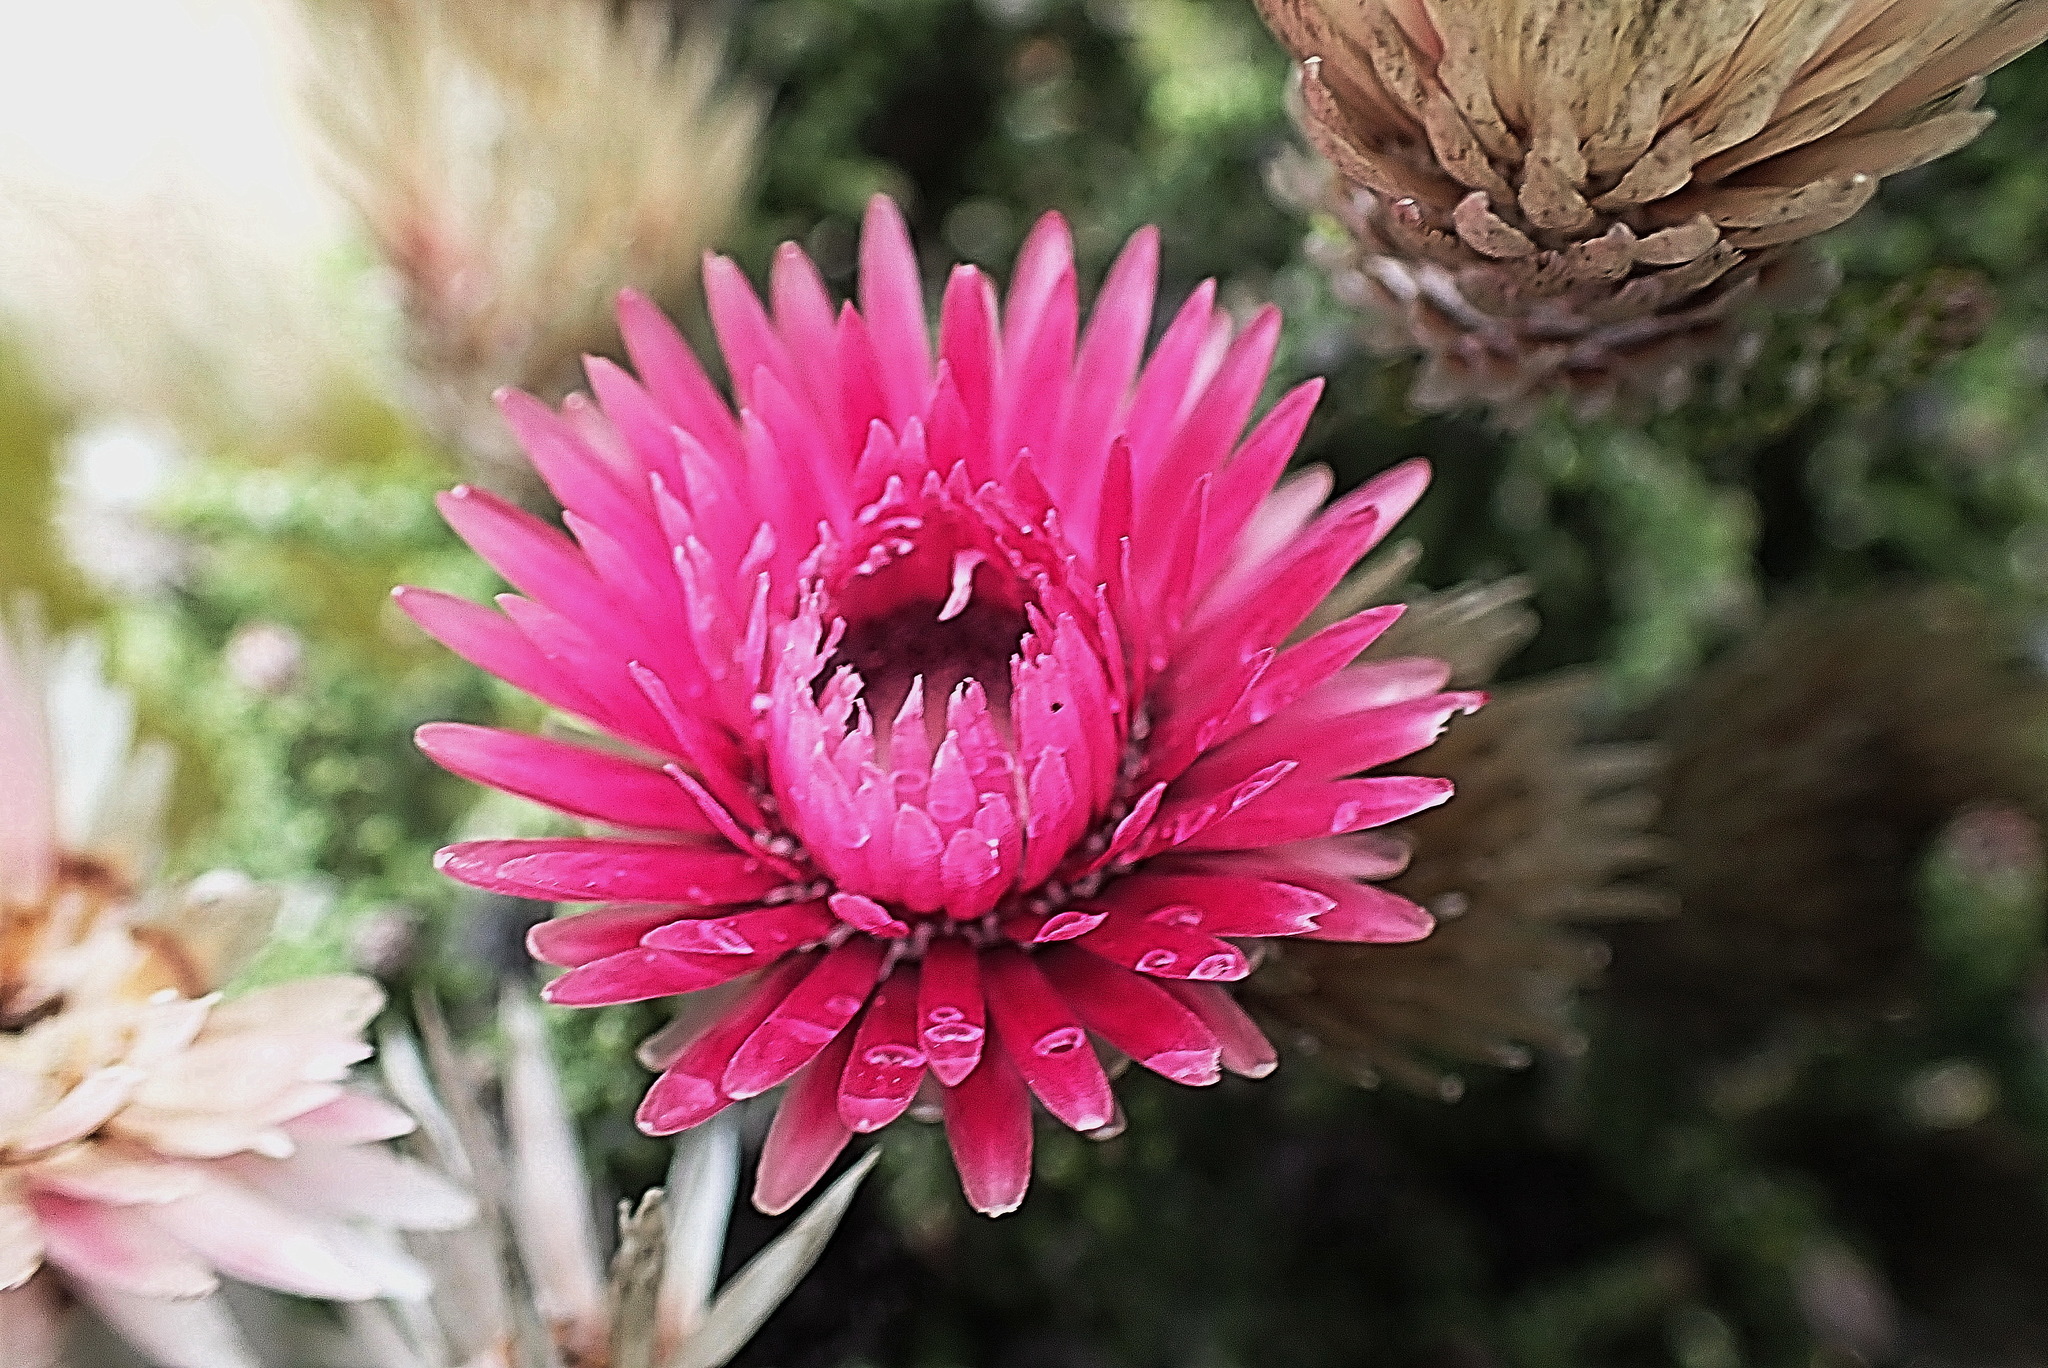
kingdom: Plantae
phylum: Tracheophyta
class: Magnoliopsida
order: Asterales
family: Asteraceae
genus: Phaenocoma
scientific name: Phaenocoma prolifera
